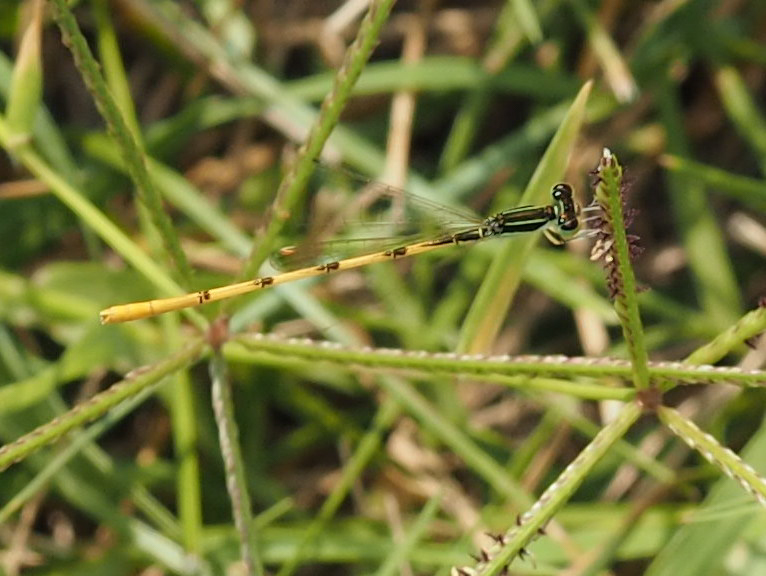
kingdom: Animalia
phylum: Arthropoda
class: Insecta
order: Odonata
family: Coenagrionidae
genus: Ischnura
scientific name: Ischnura hastata
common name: Citrine forktail
